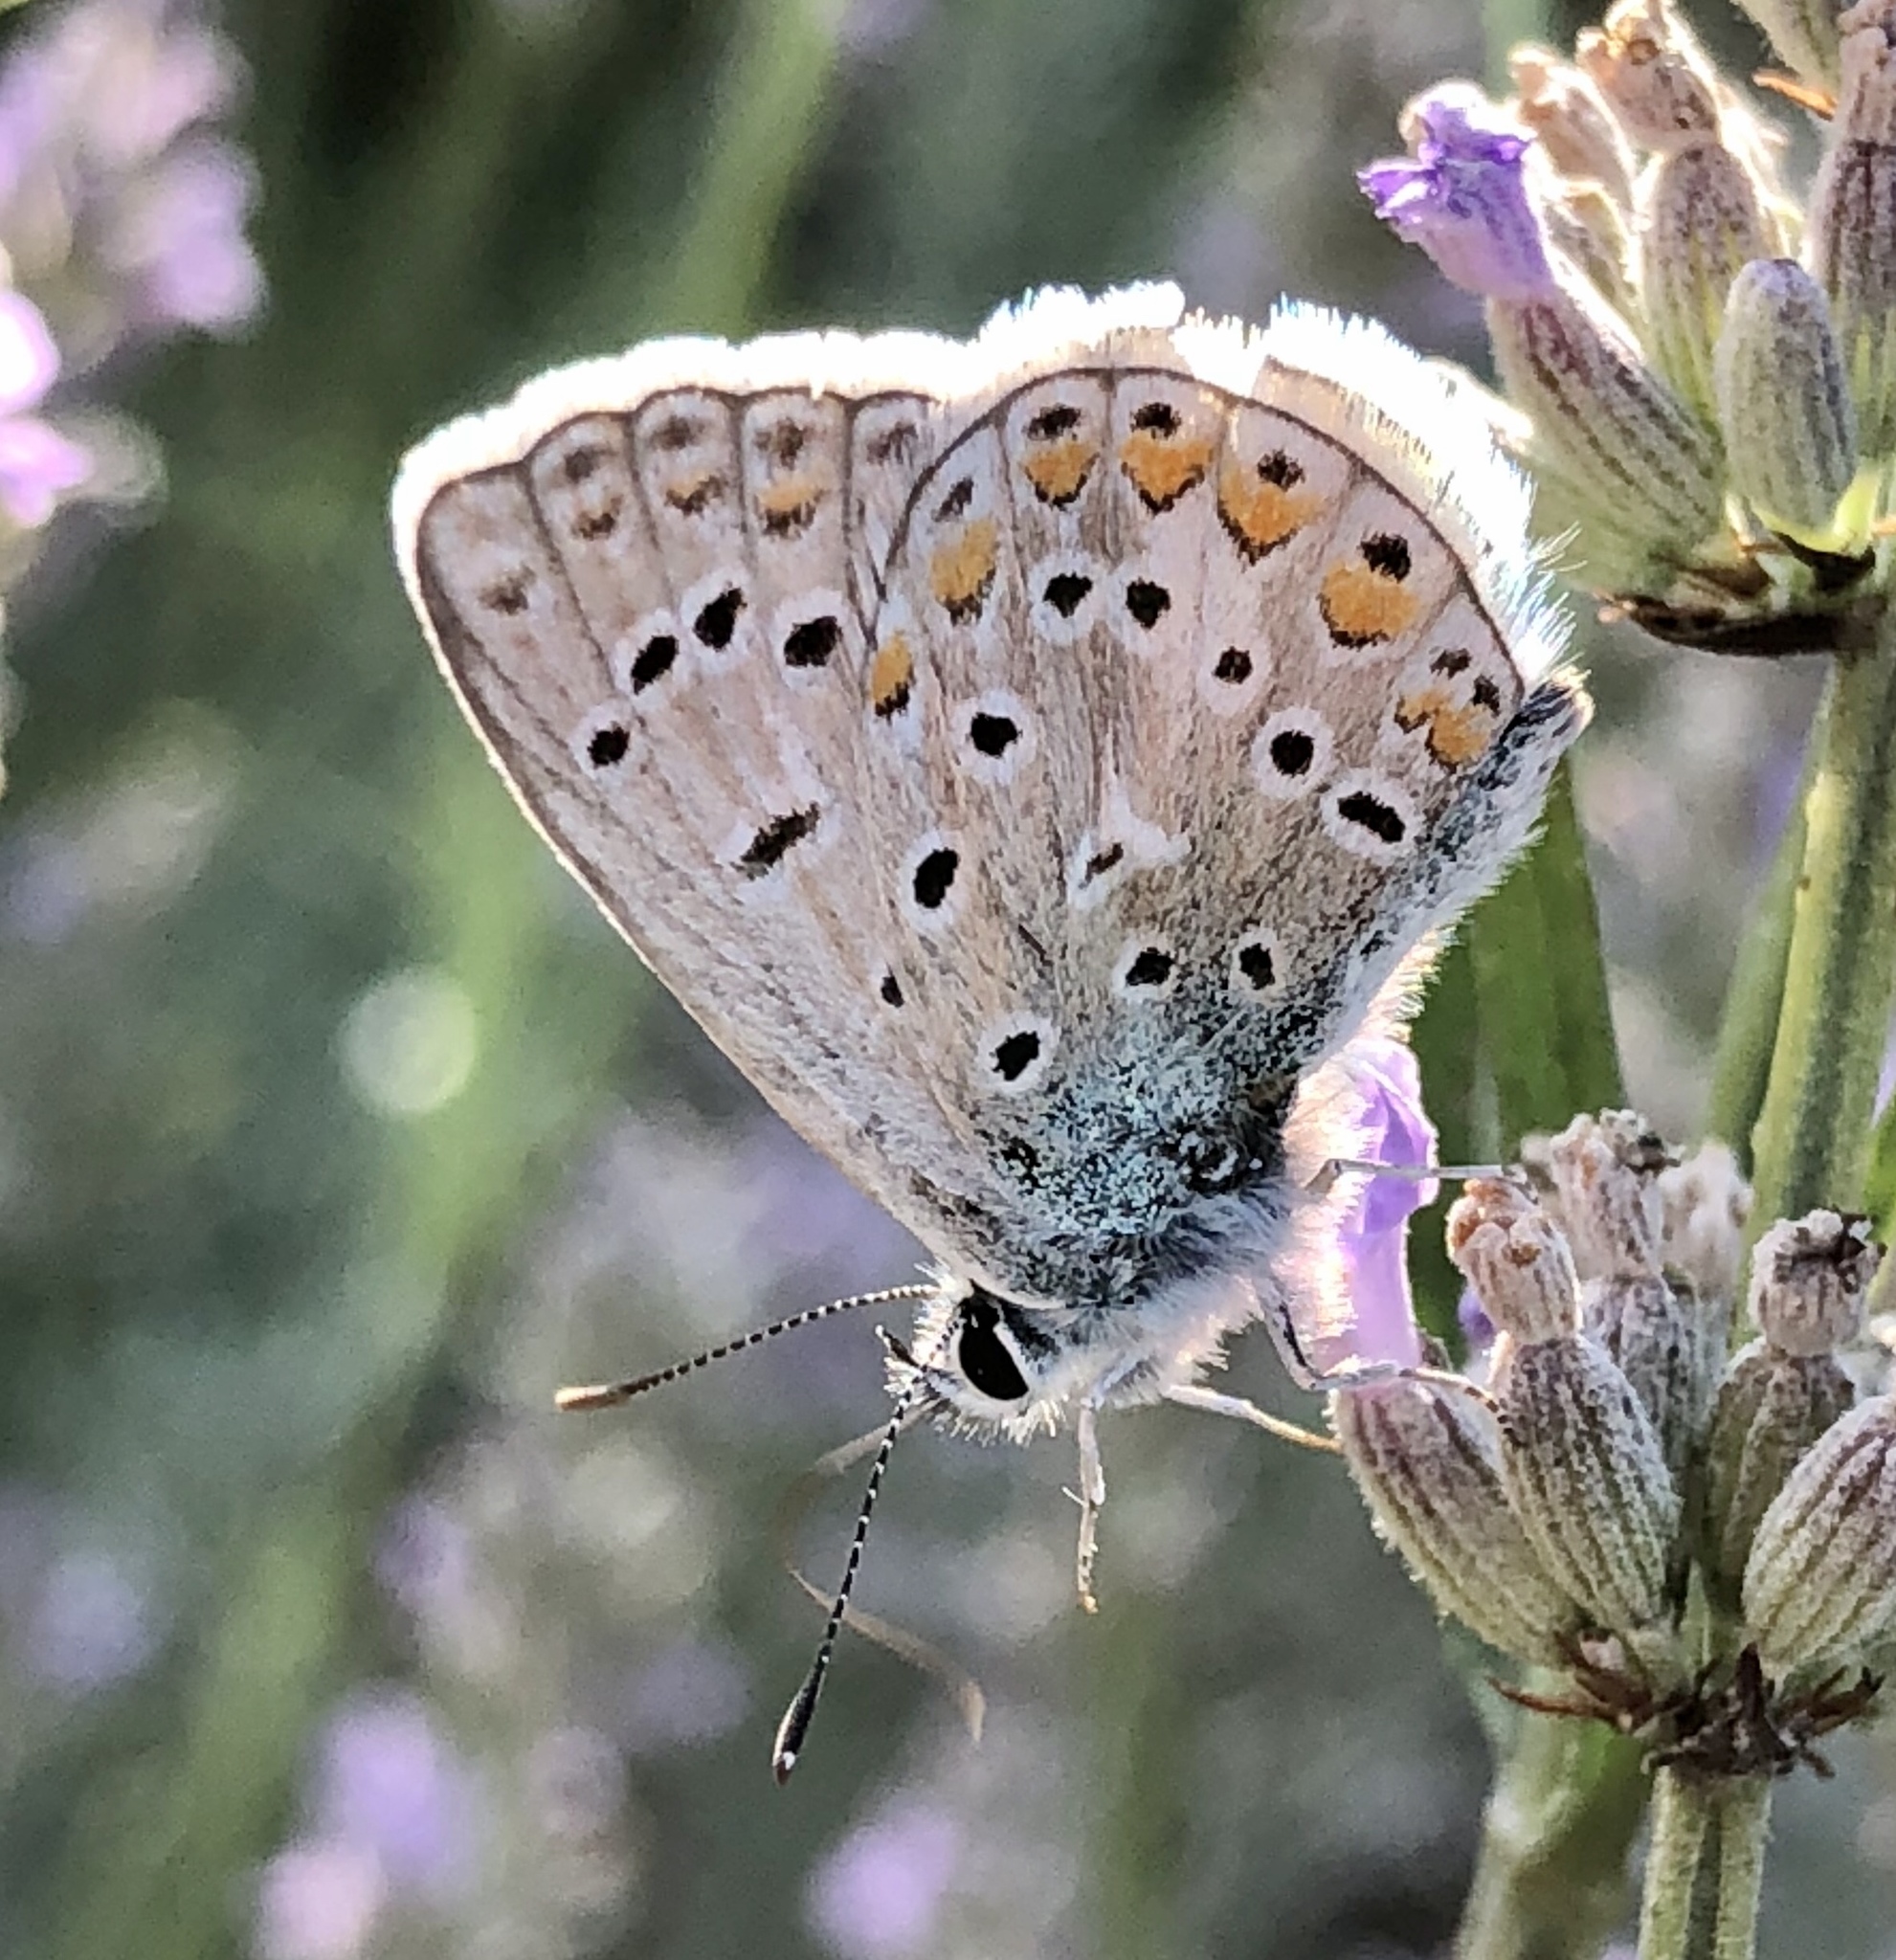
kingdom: Animalia
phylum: Arthropoda
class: Insecta
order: Lepidoptera
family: Lycaenidae
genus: Polyommatus
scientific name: Polyommatus icarus
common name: Common blue
